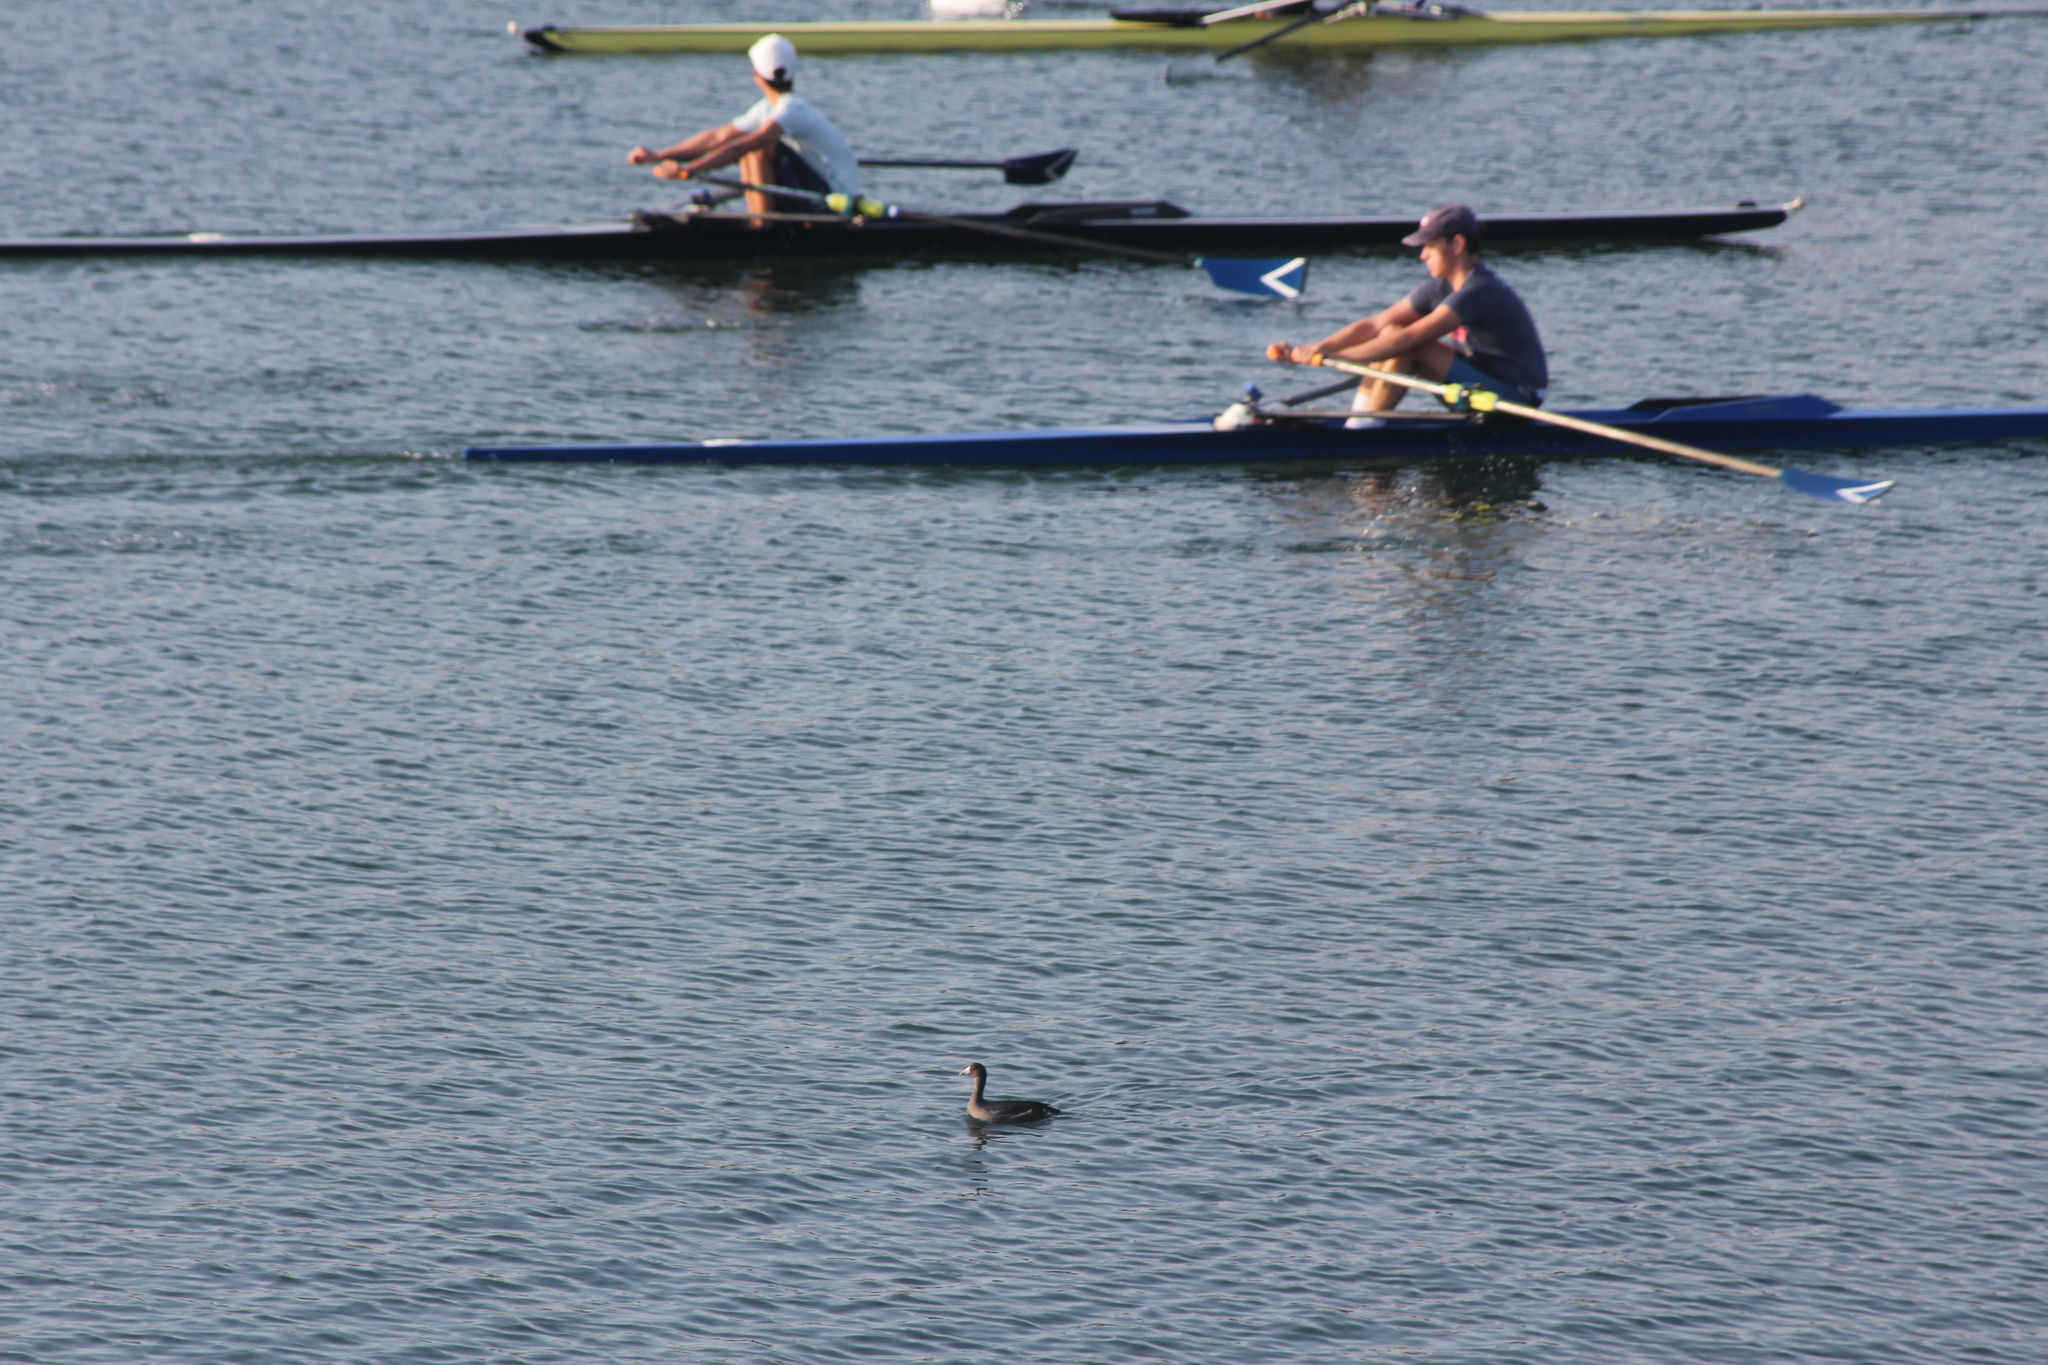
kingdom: Animalia
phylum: Chordata
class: Aves
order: Gruiformes
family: Rallidae
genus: Fulica
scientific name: Fulica americana
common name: American coot
